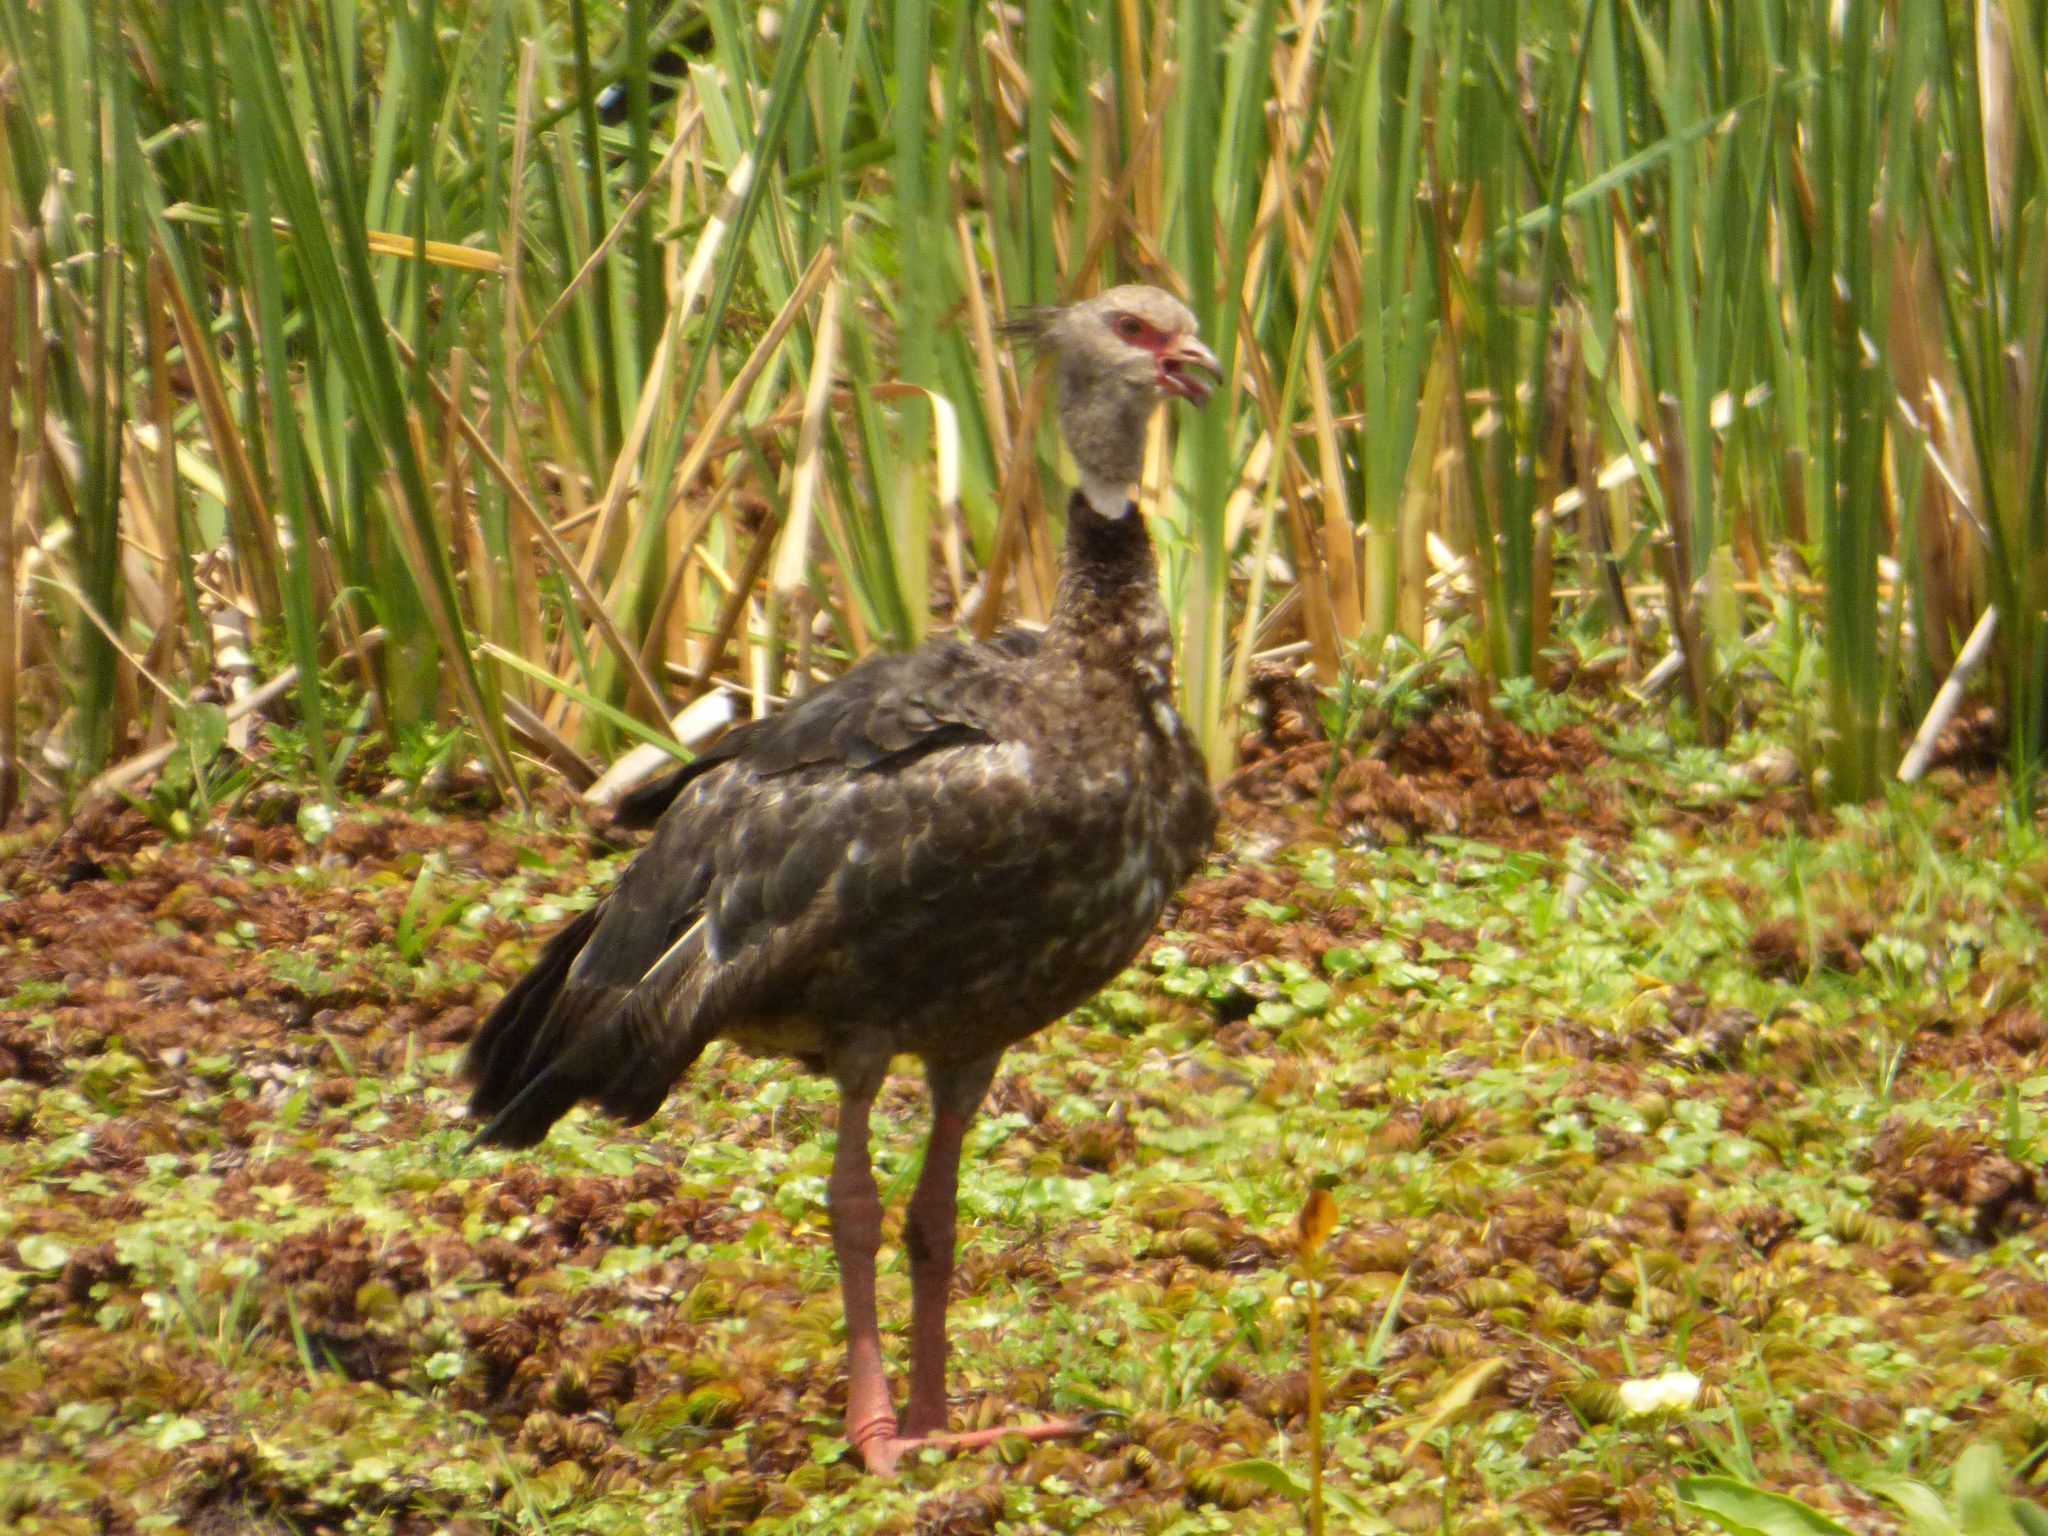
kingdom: Animalia
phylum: Chordata
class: Aves
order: Anseriformes
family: Anhimidae
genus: Chauna
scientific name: Chauna torquata
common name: Southern screamer
